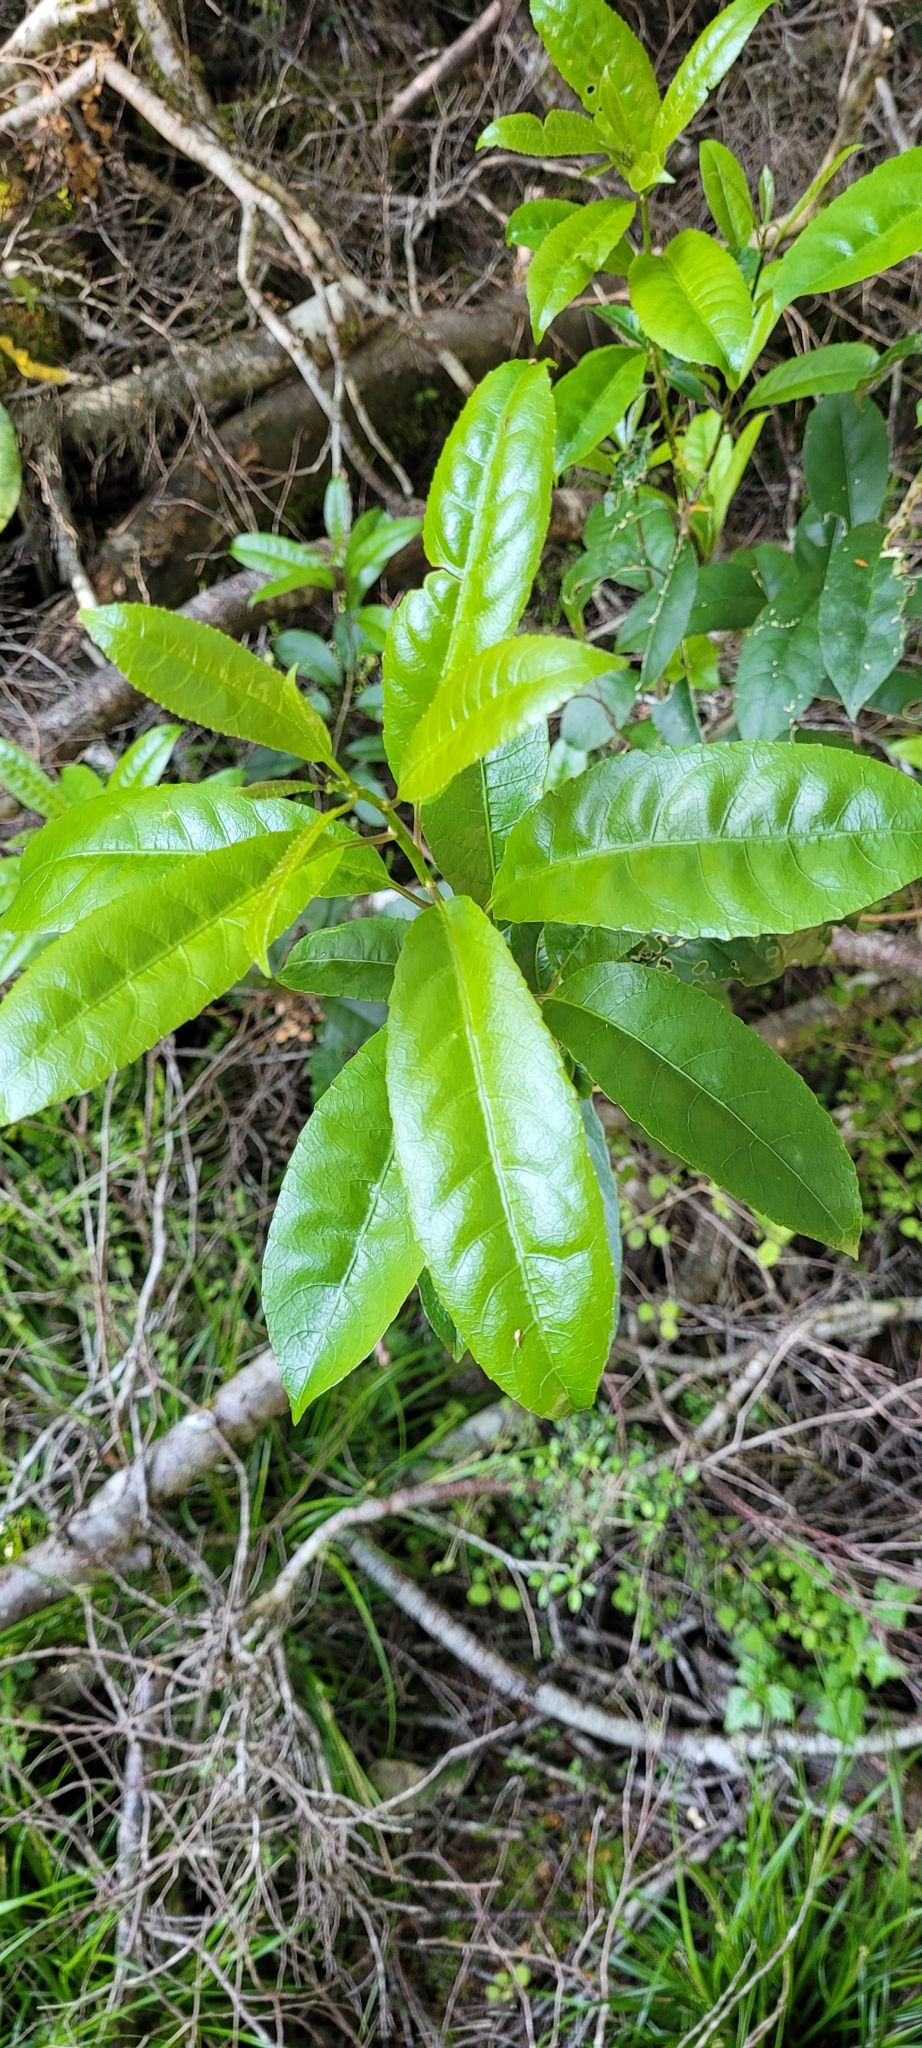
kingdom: Plantae
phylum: Tracheophyta
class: Magnoliopsida
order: Malpighiales
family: Violaceae
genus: Melicytus
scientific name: Melicytus ramiflorus
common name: Mahoe
